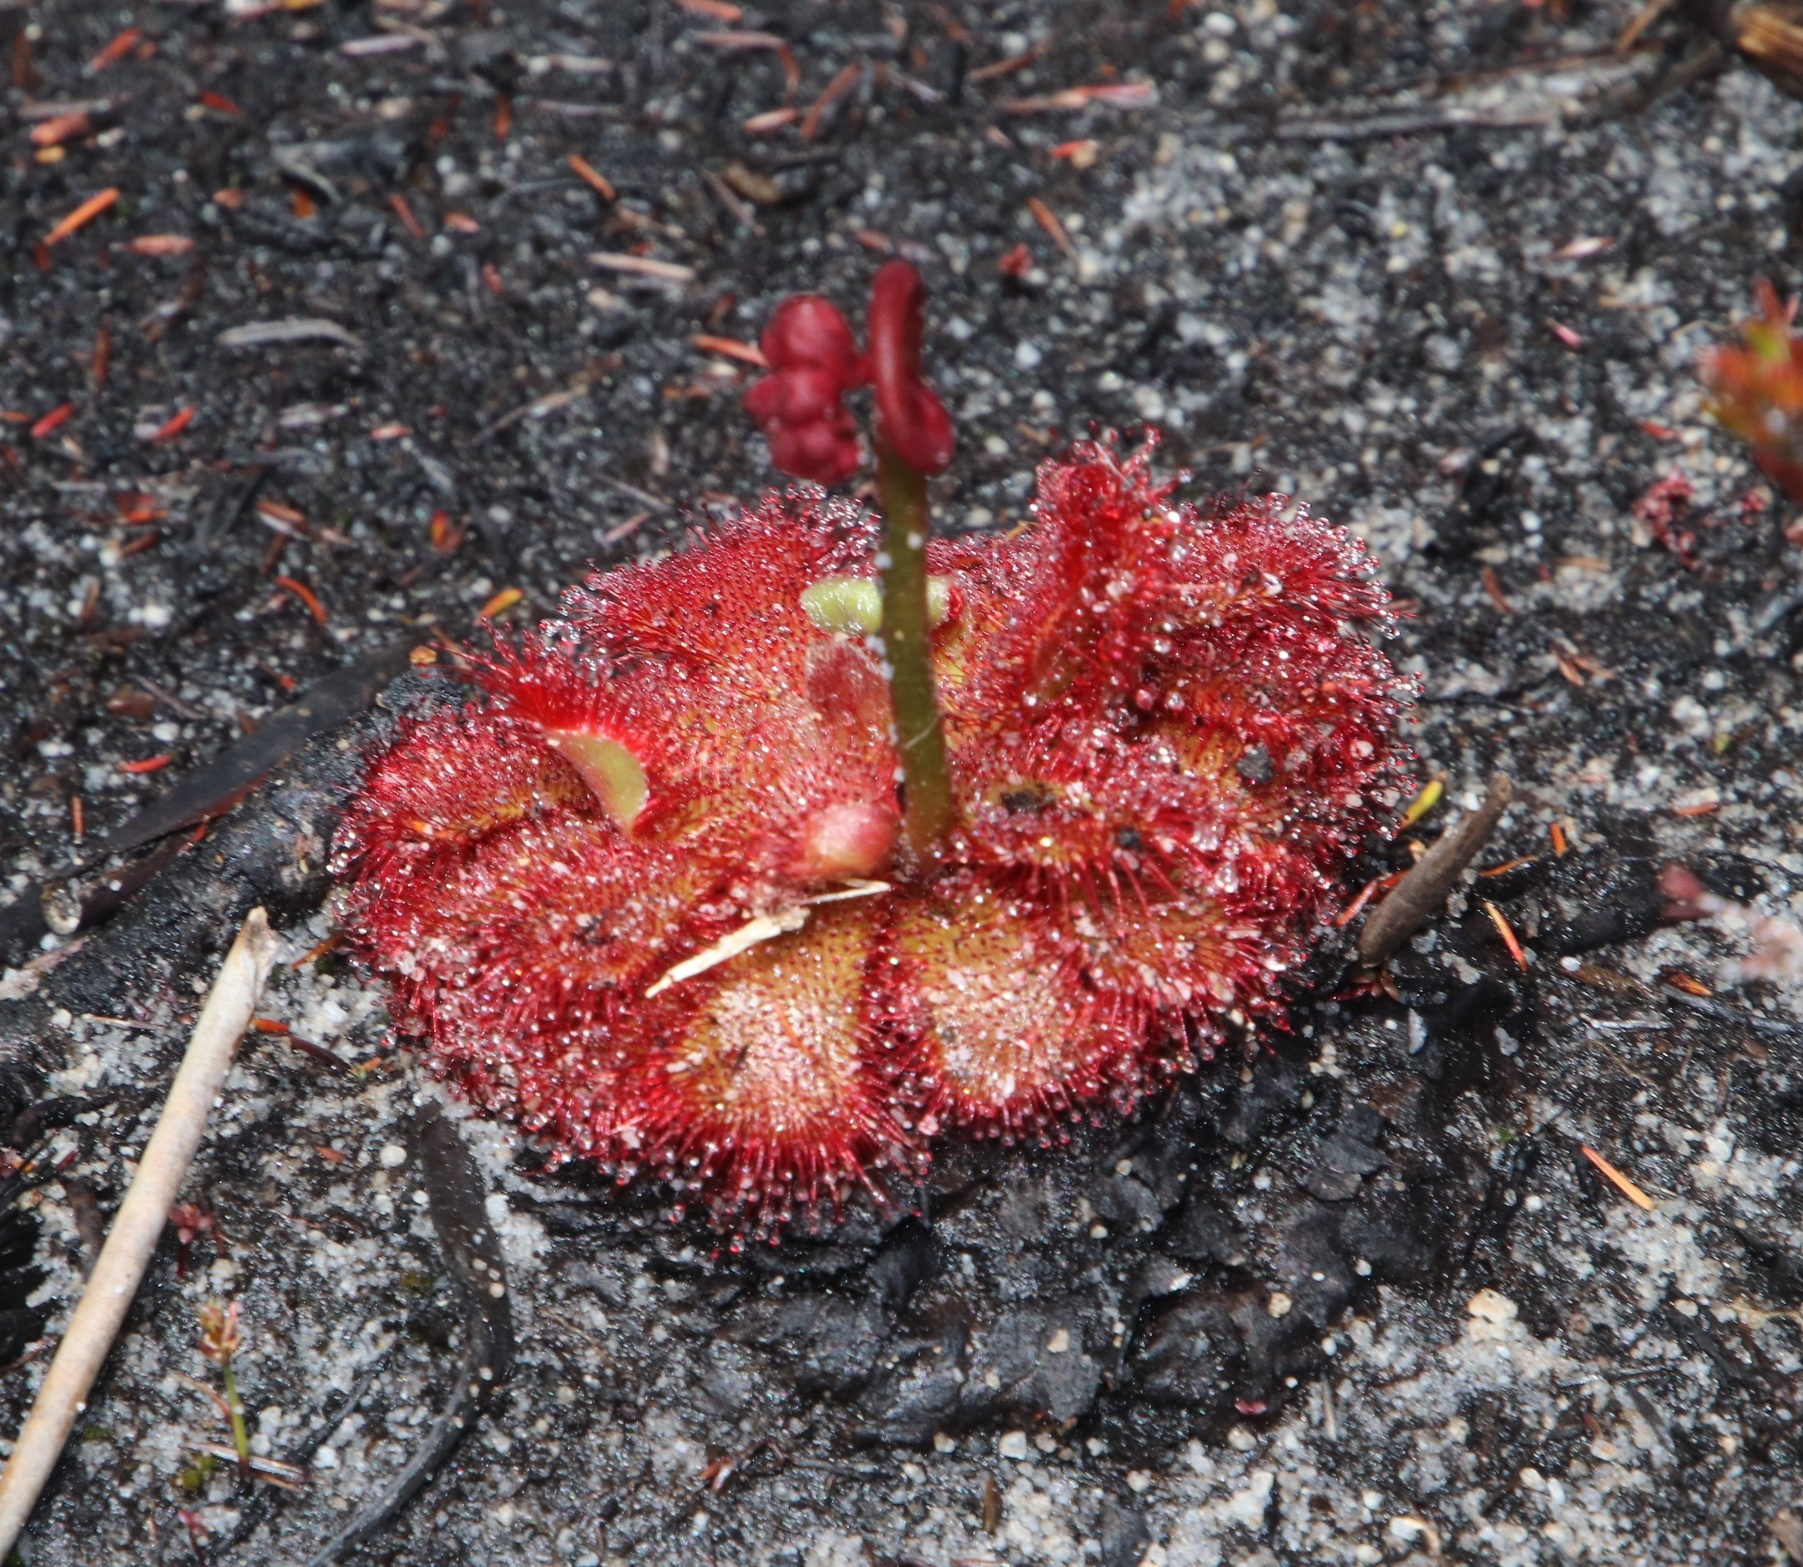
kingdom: Plantae
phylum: Tracheophyta
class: Magnoliopsida
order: Caryophyllales
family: Droseraceae
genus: Drosera
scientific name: Drosera aliciae
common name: Alice sundew
